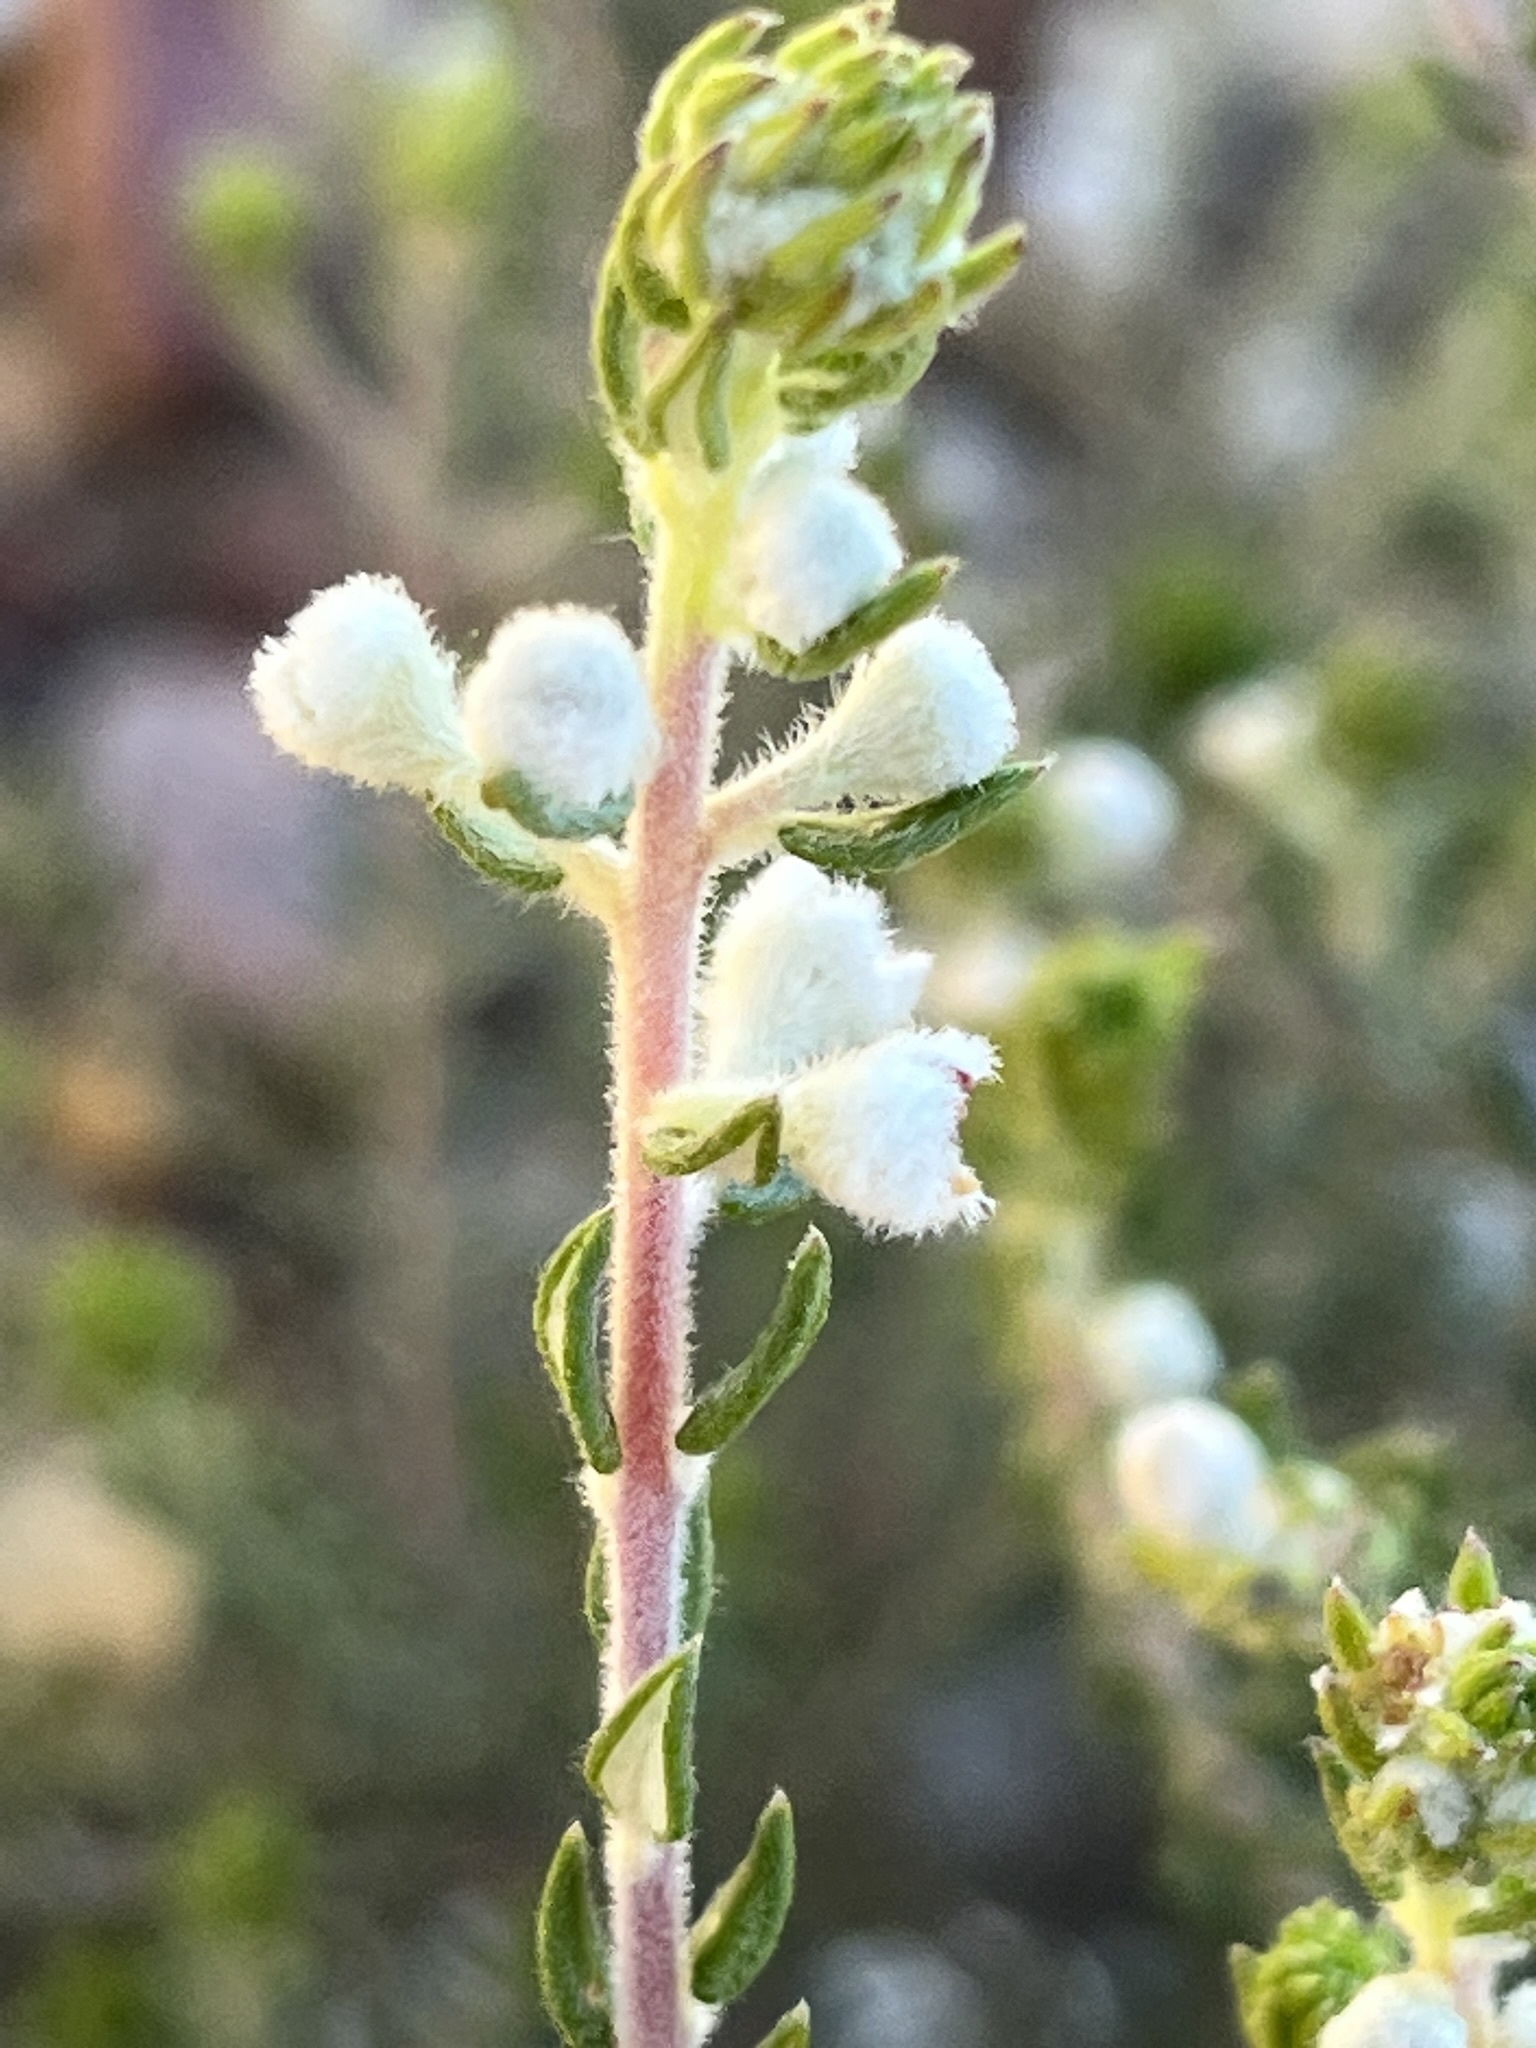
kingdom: Plantae
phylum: Tracheophyta
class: Magnoliopsida
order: Rosales
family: Rhamnaceae
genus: Phylica
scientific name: Phylica purpurea
